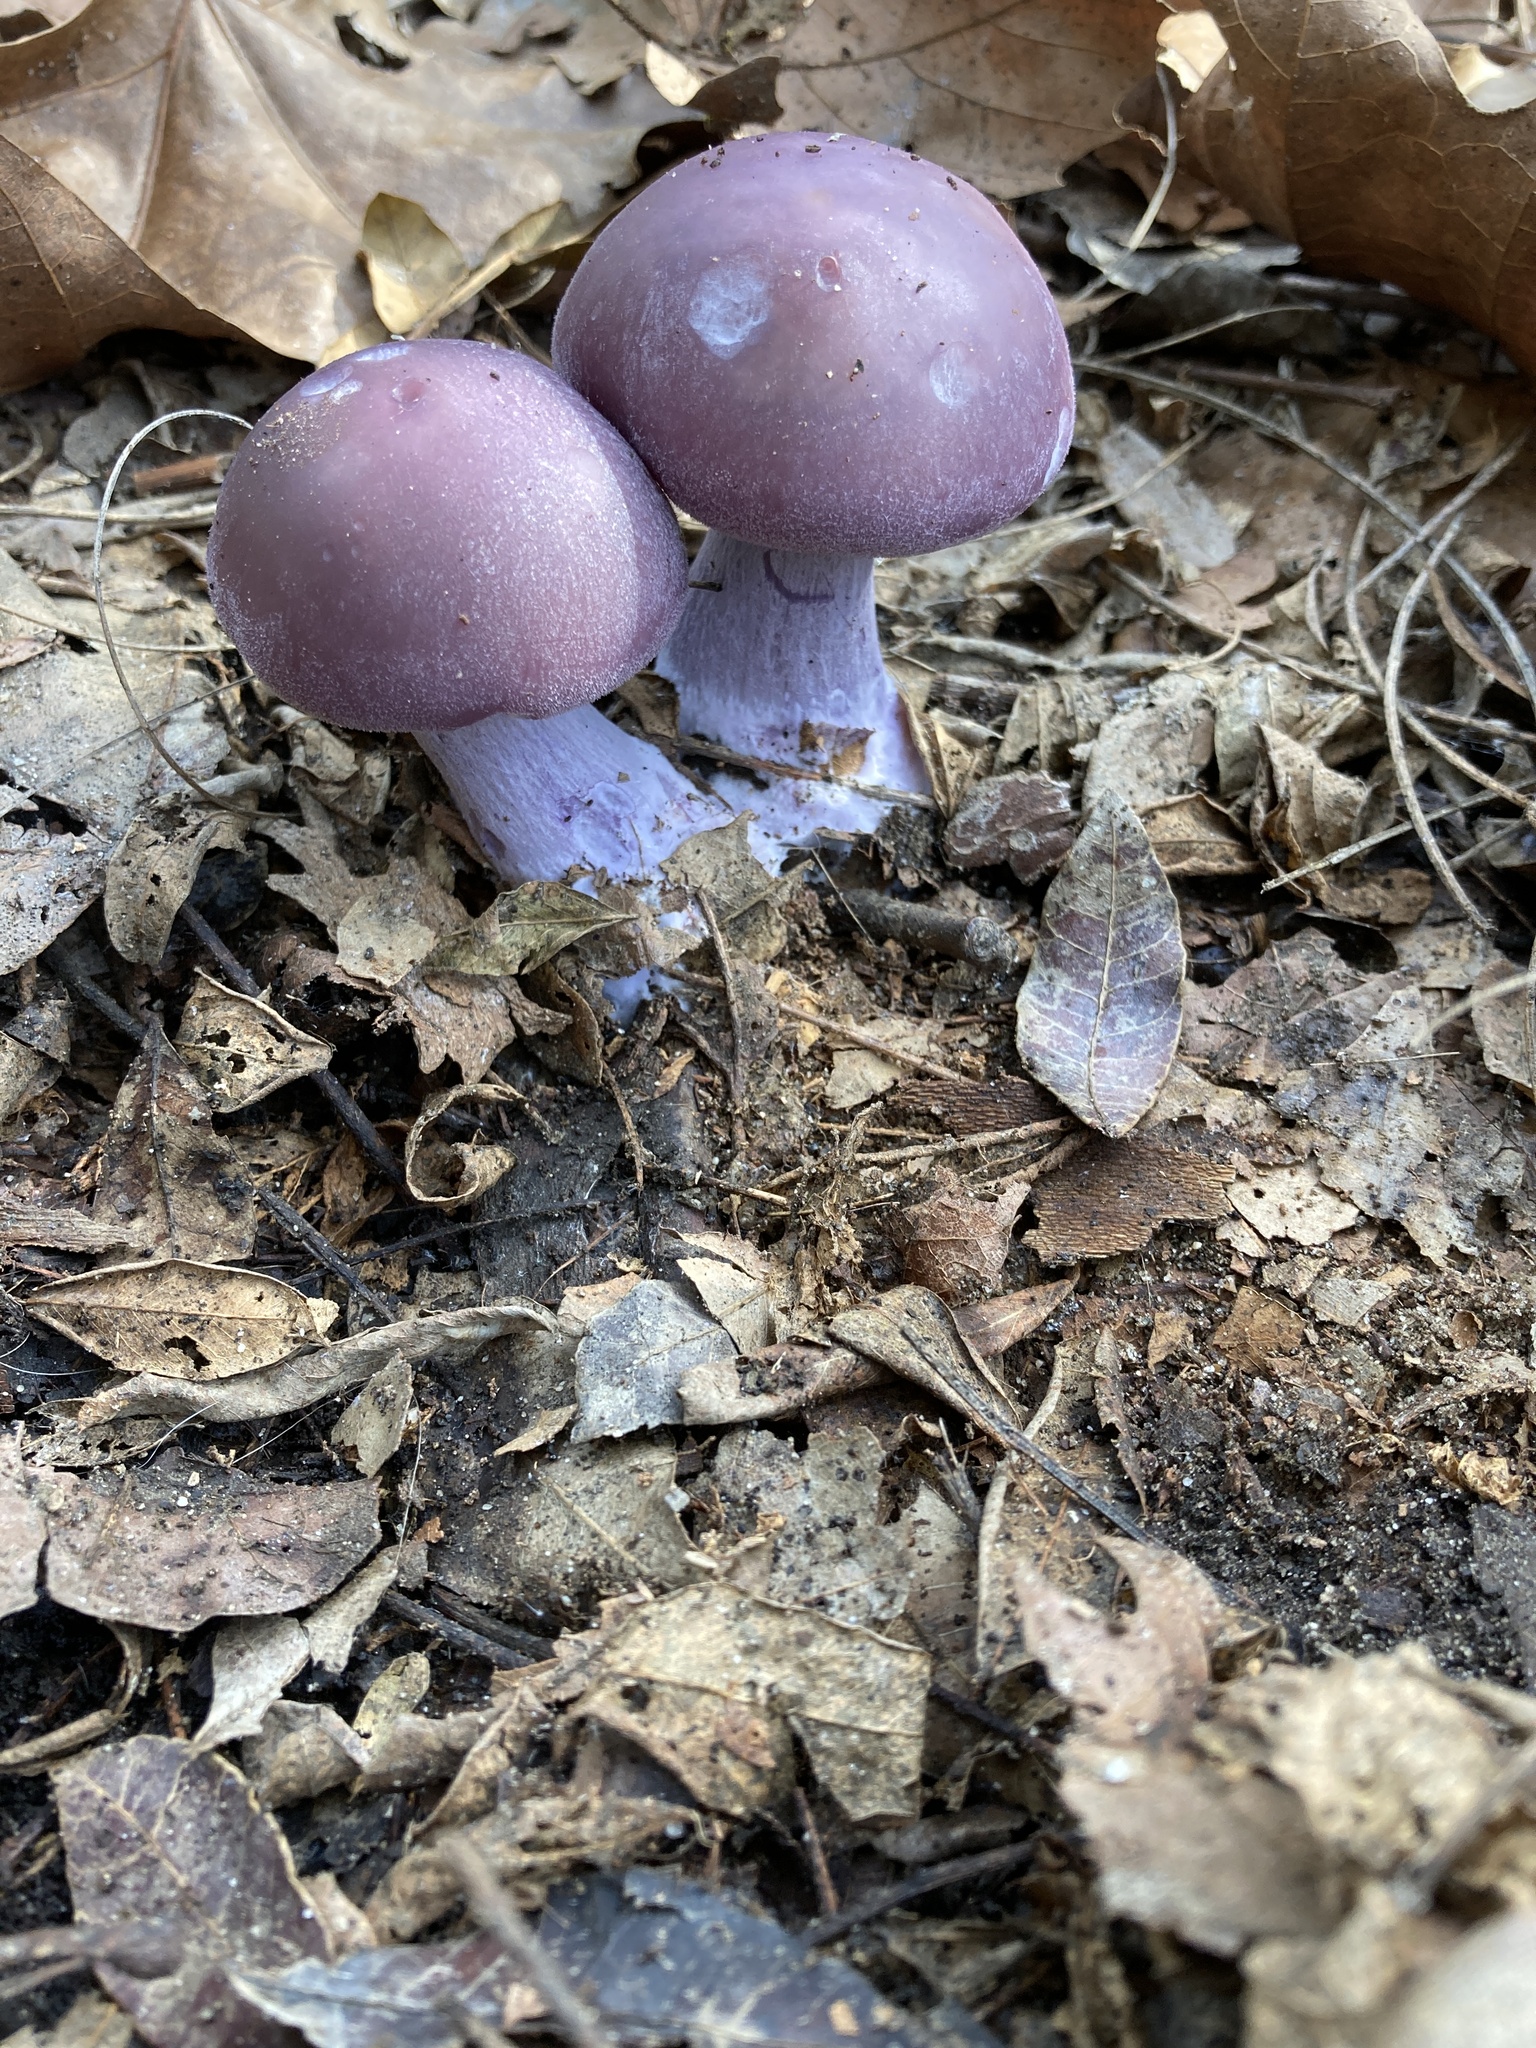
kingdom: Fungi
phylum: Basidiomycota
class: Agaricomycetes
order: Agaricales
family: Tricholomataceae
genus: Collybia
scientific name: Collybia
